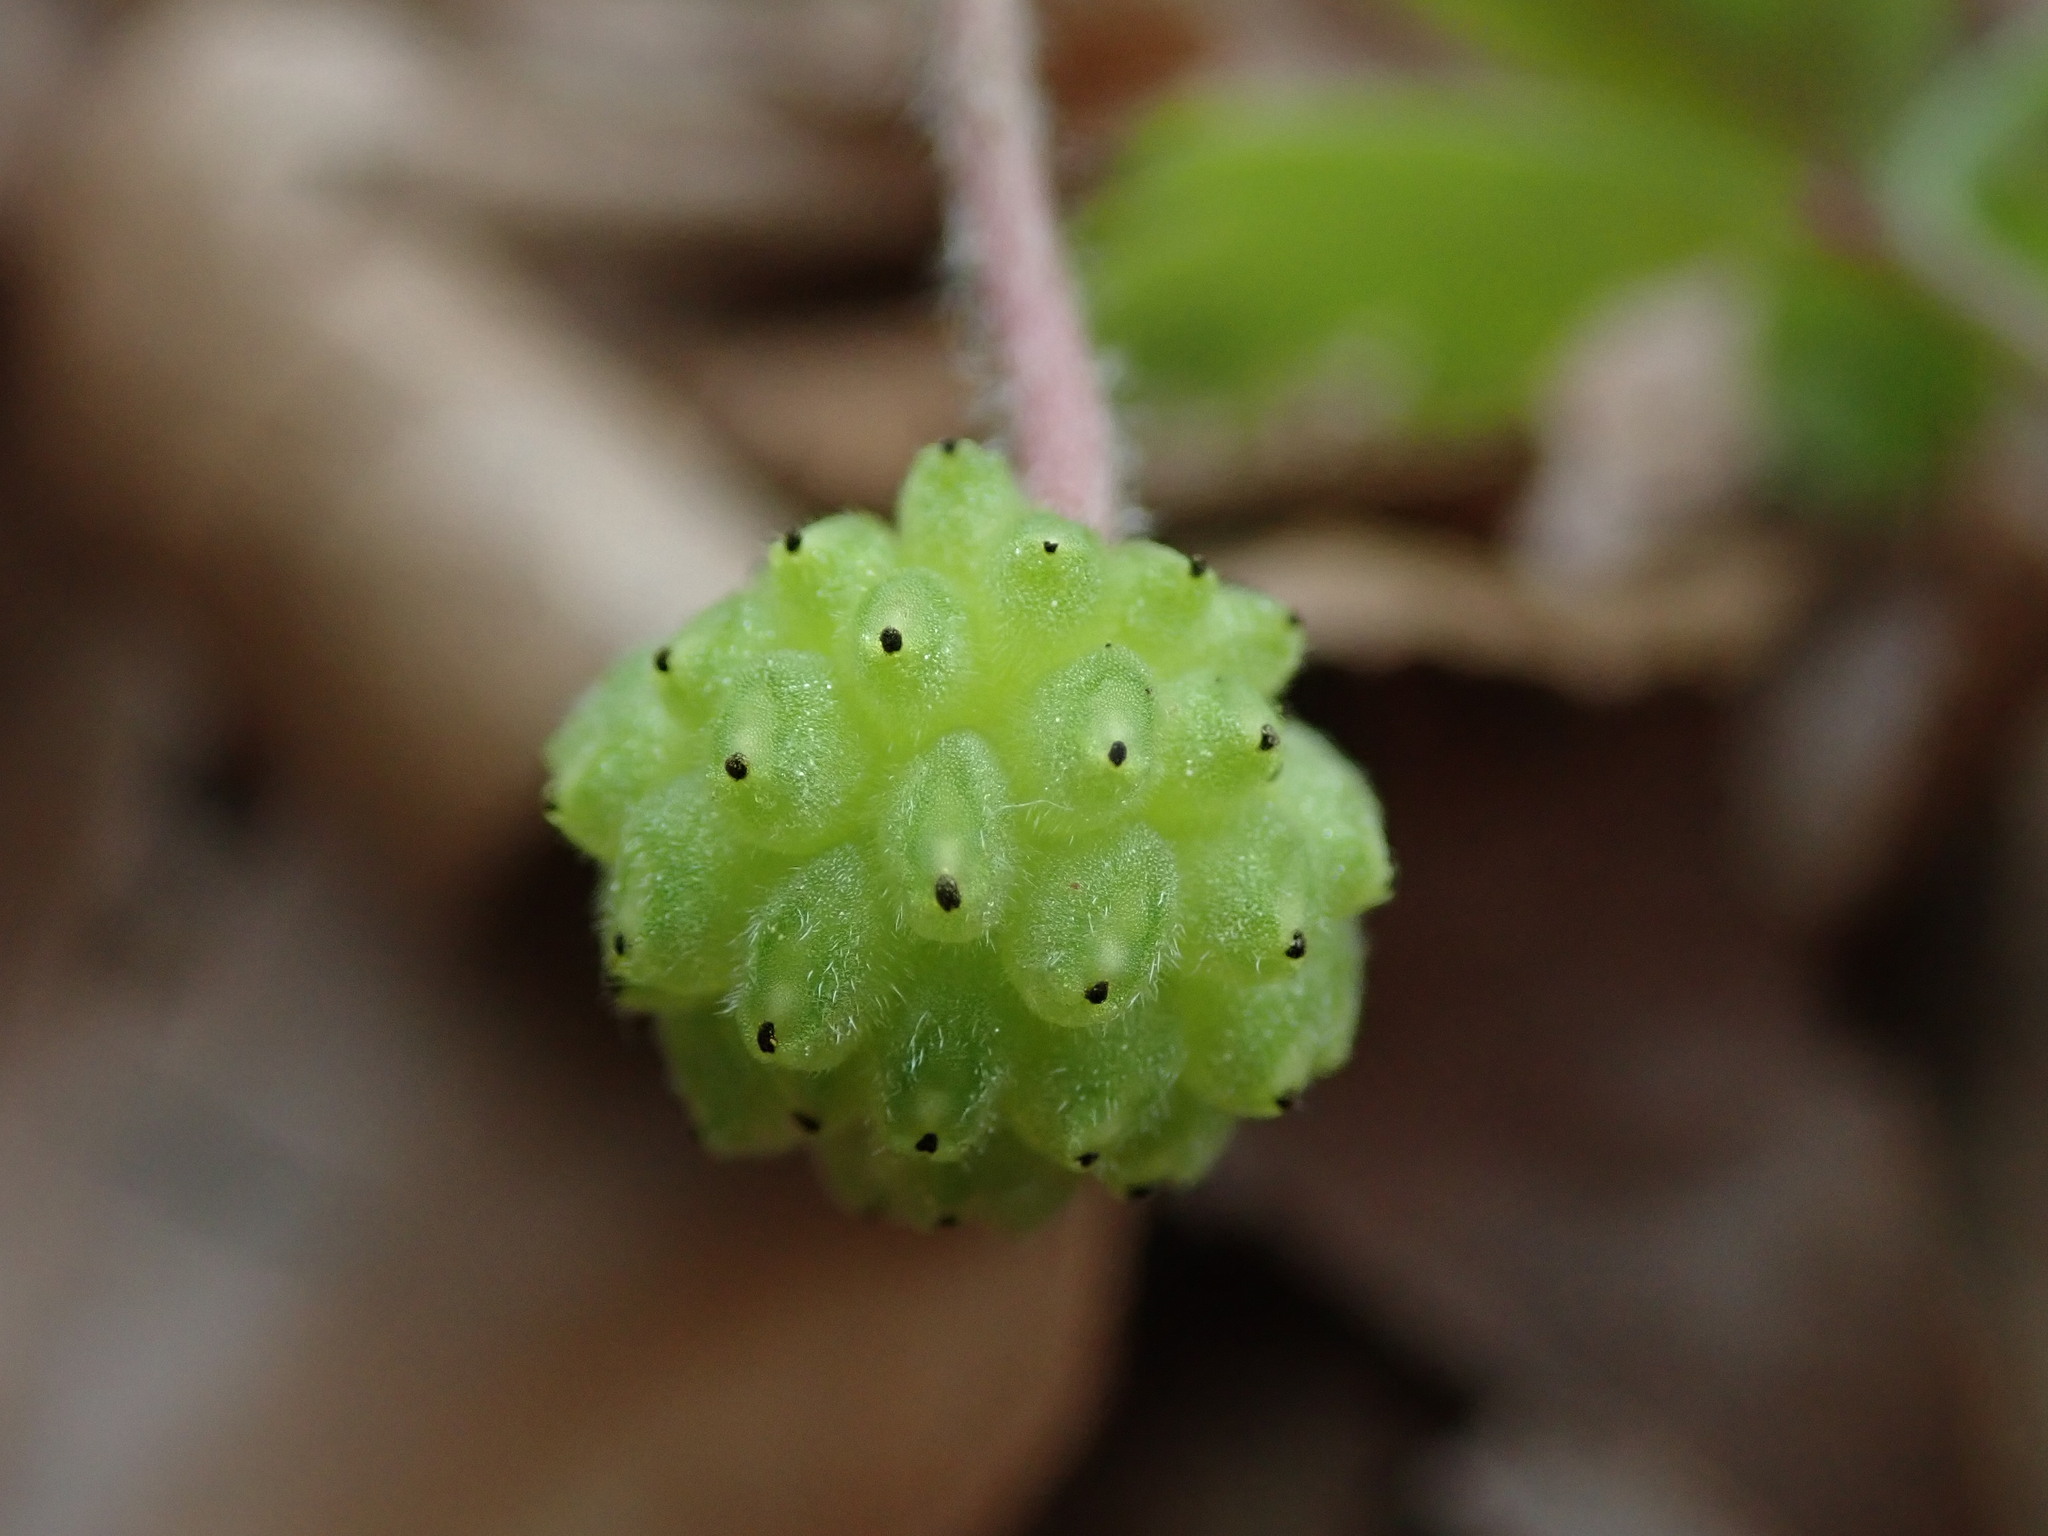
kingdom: Plantae
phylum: Tracheophyta
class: Magnoliopsida
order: Ranunculales
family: Ranunculaceae
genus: Anemone
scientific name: Anemone blanda
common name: Balkan anemone
